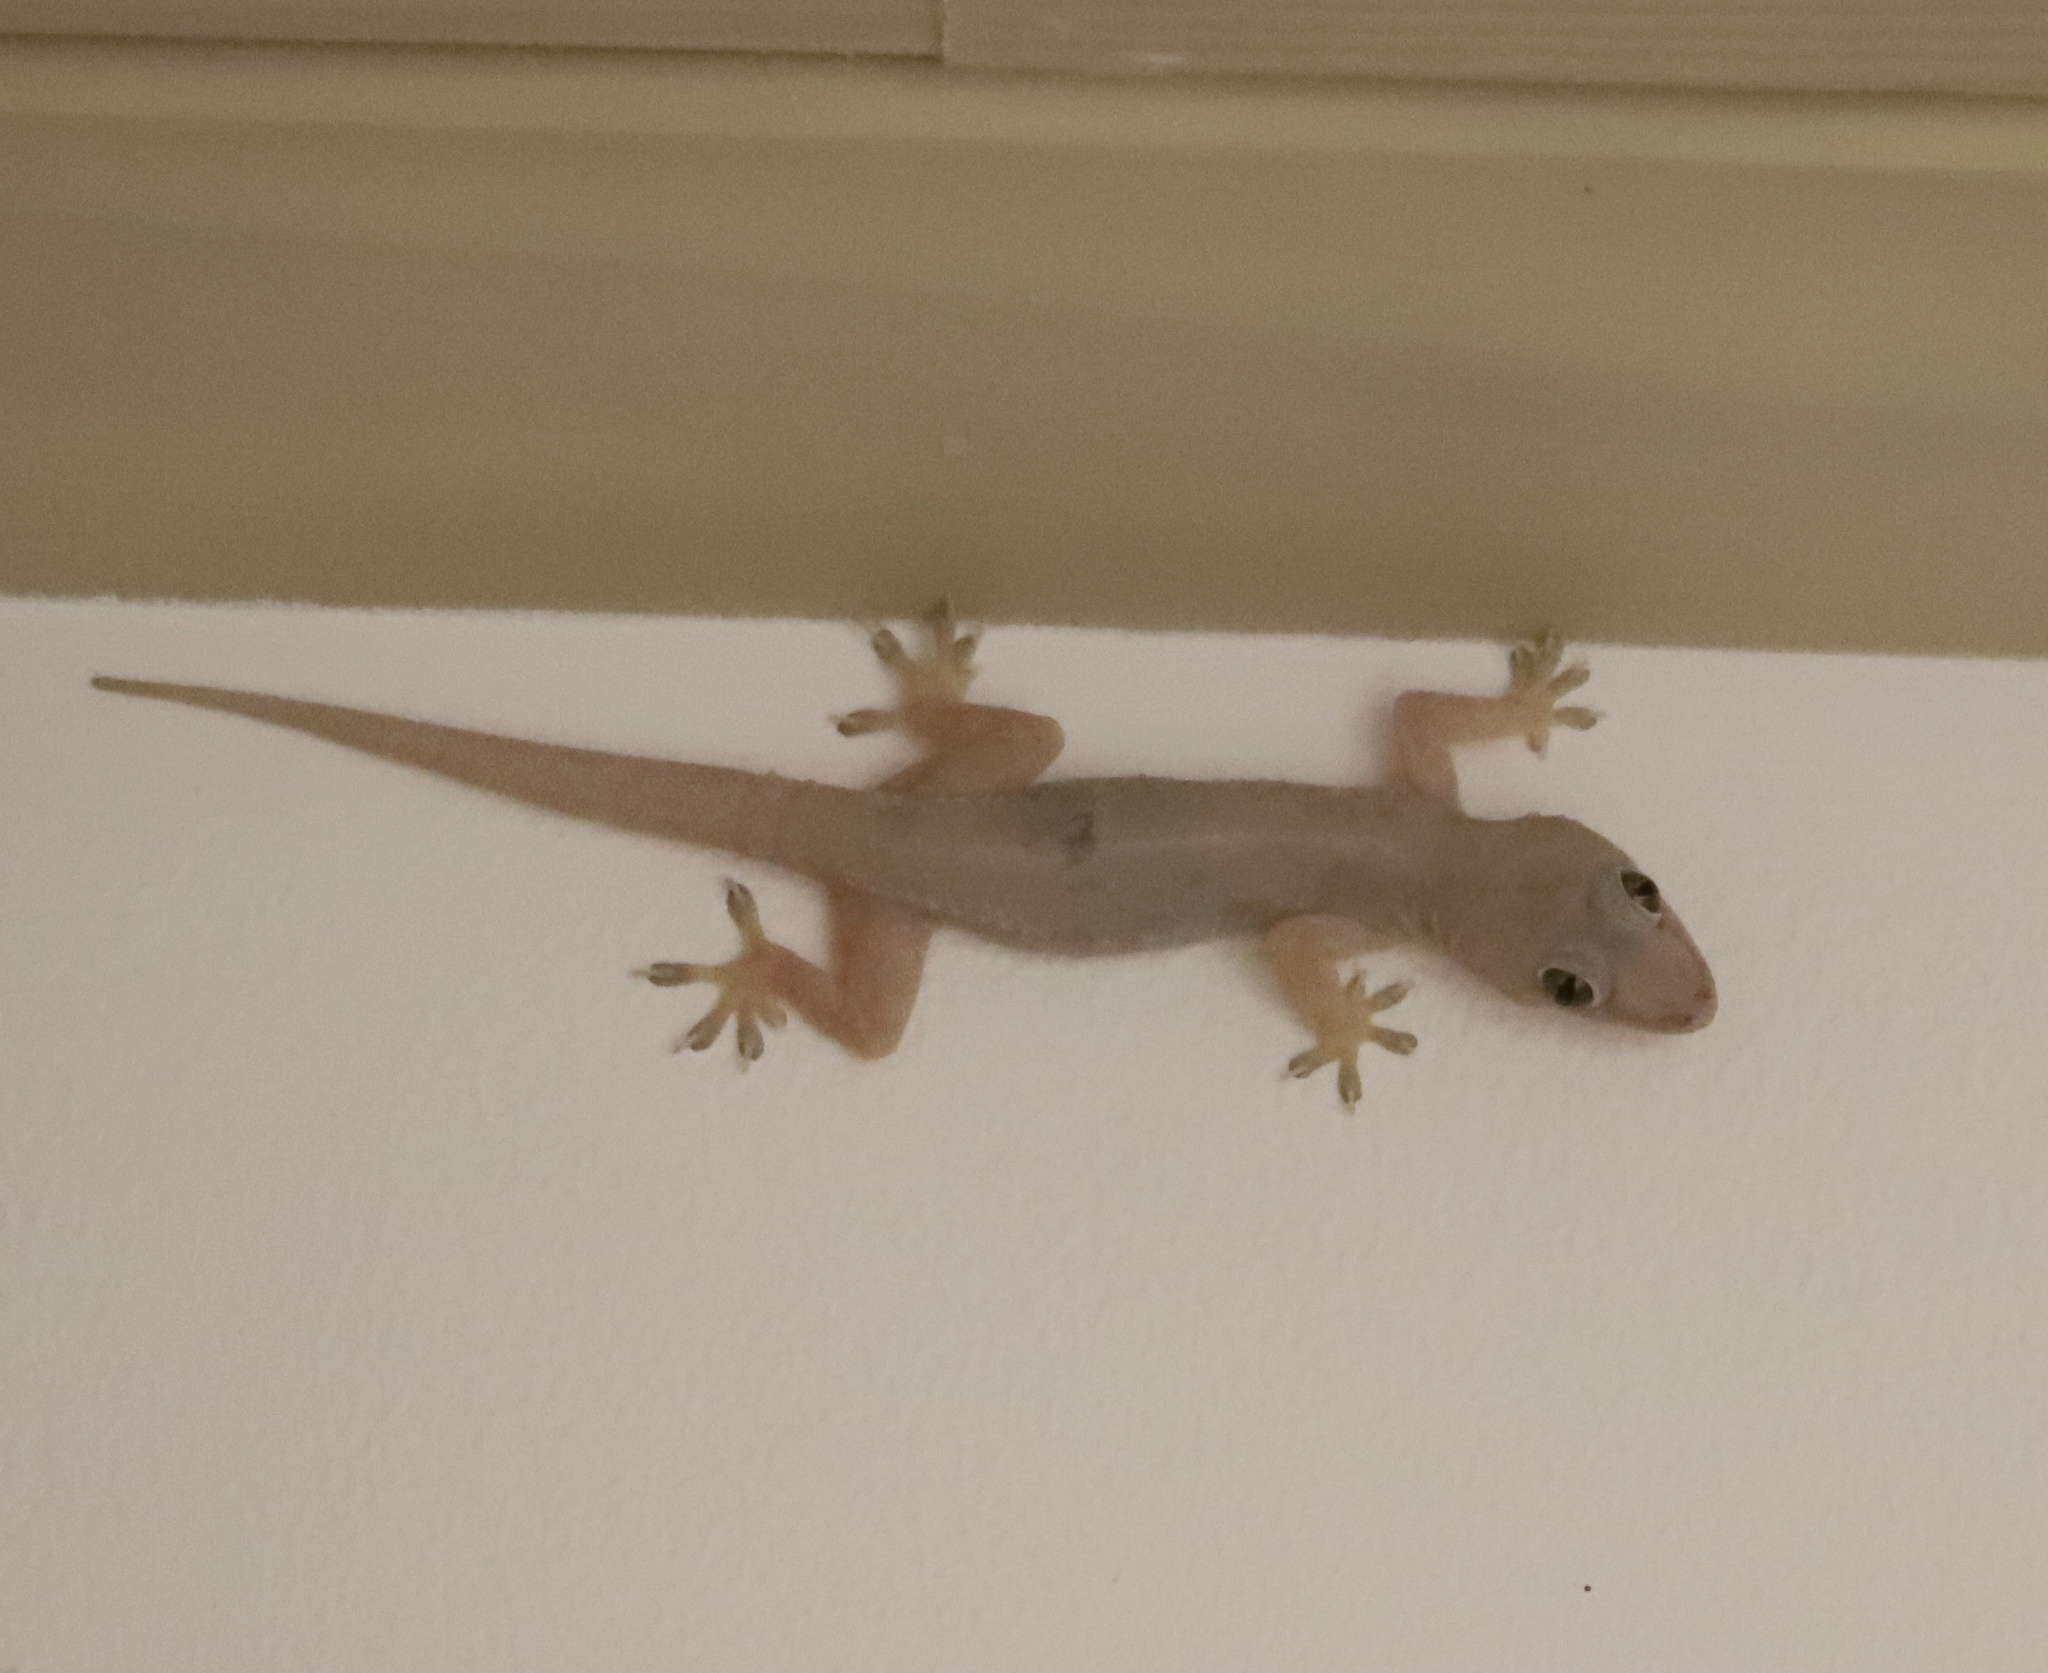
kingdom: Animalia
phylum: Chordata
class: Squamata
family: Gekkonidae
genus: Hemidactylus
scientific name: Hemidactylus mabouia
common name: House gecko
